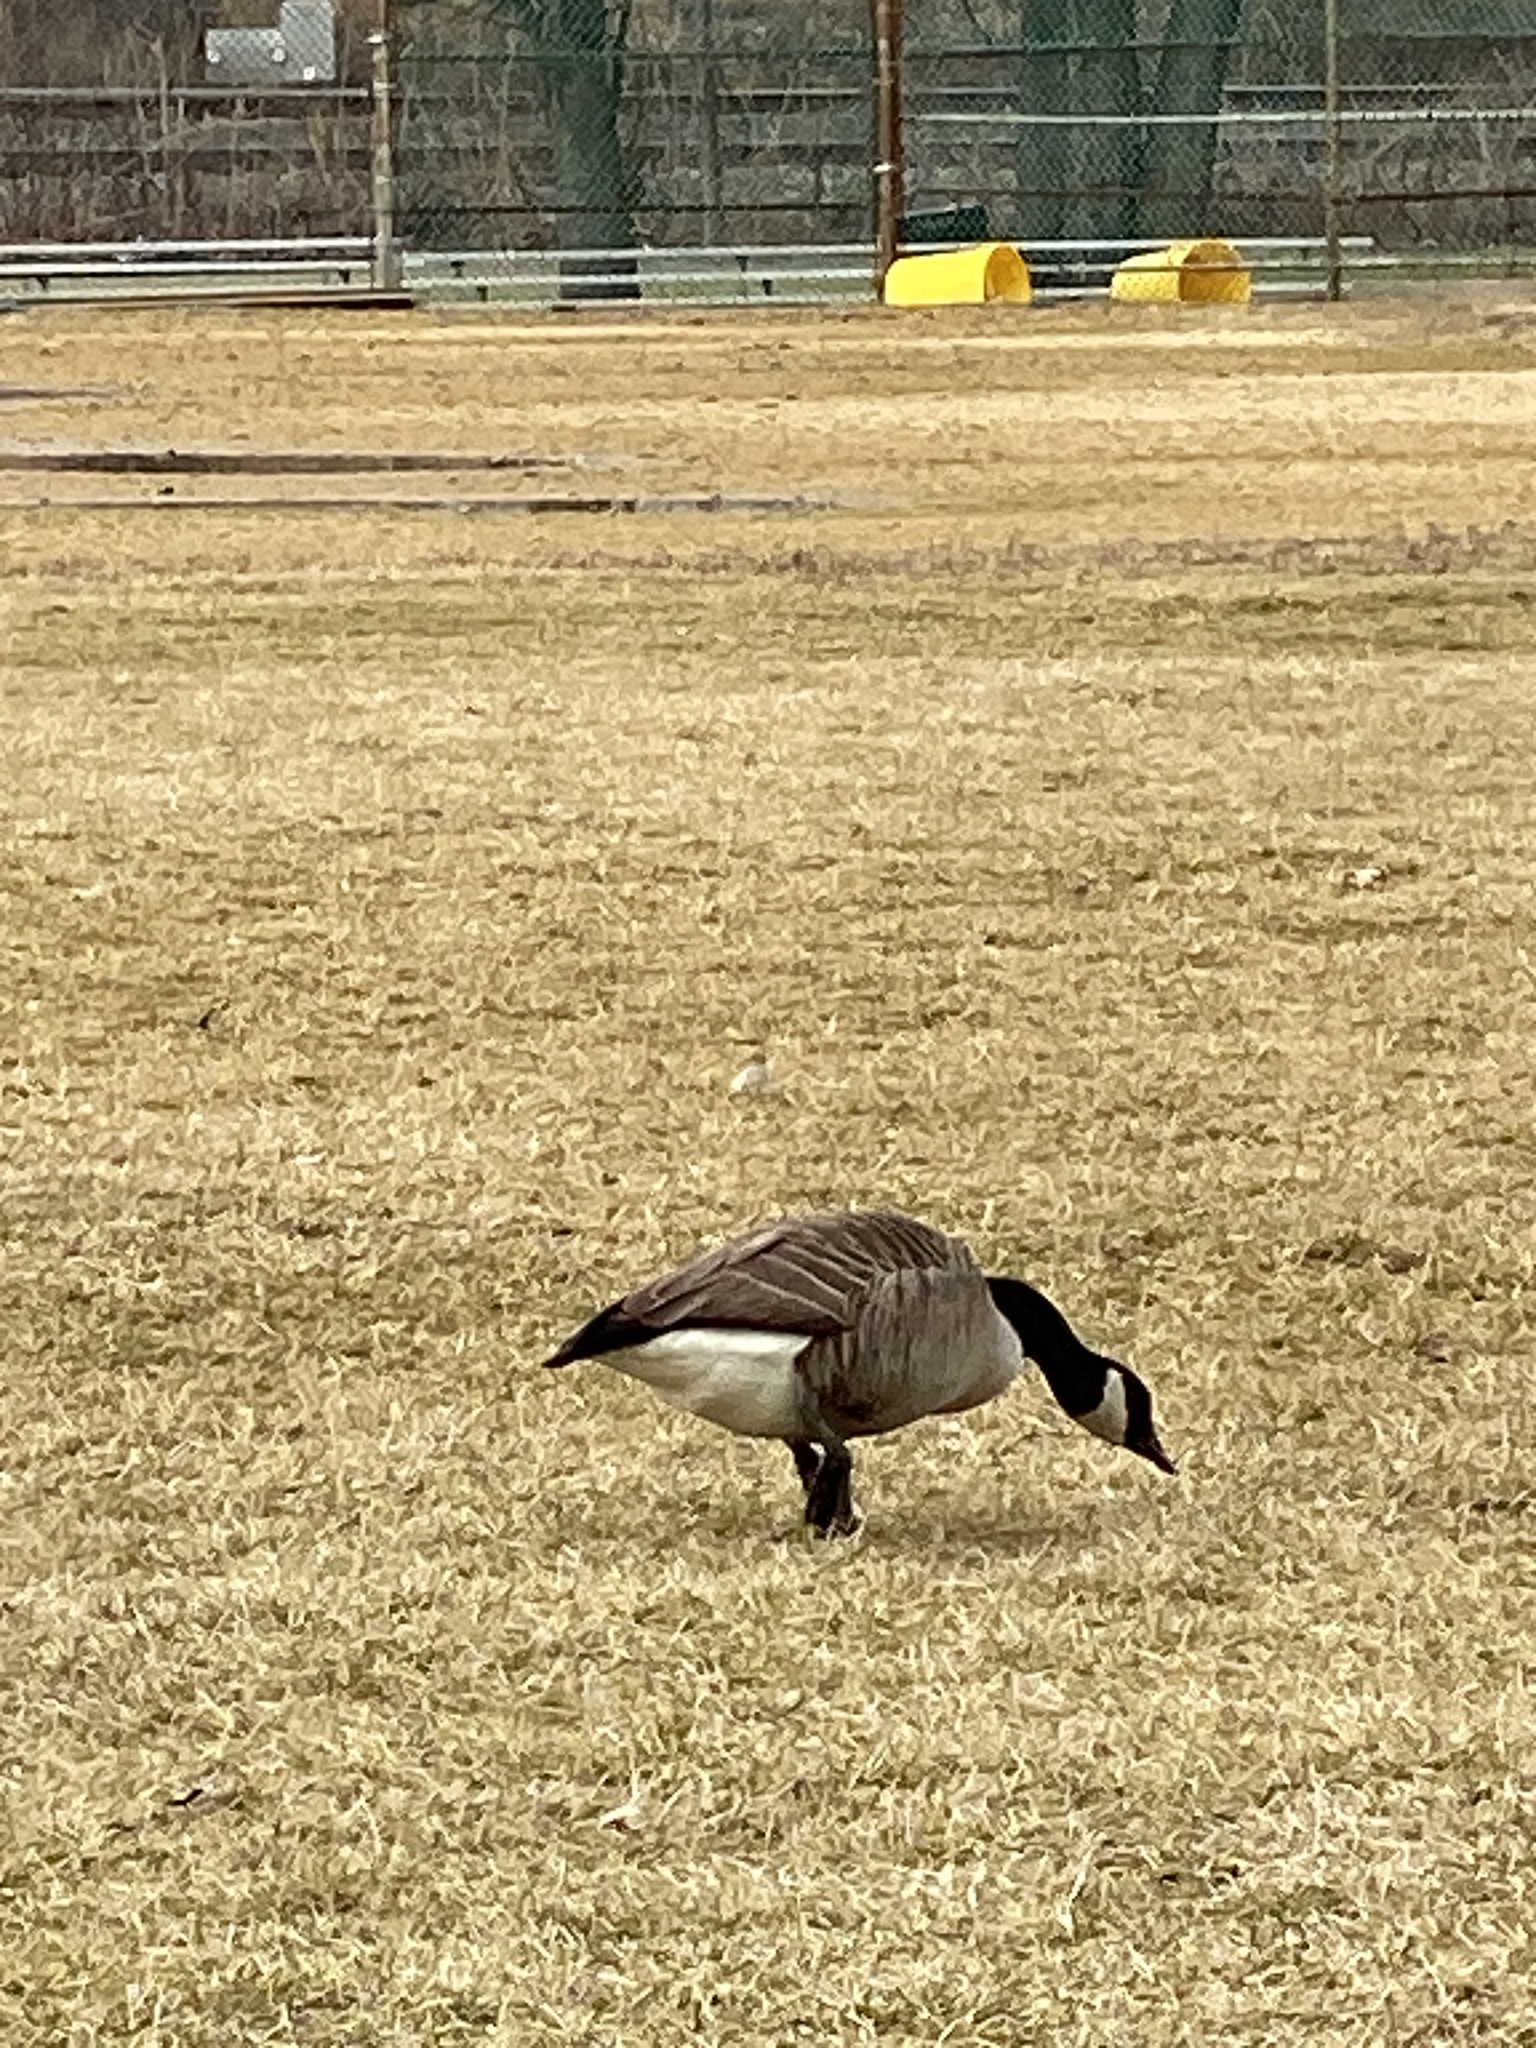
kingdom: Animalia
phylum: Chordata
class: Aves
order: Anseriformes
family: Anatidae
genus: Branta
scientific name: Branta canadensis
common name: Canada goose
